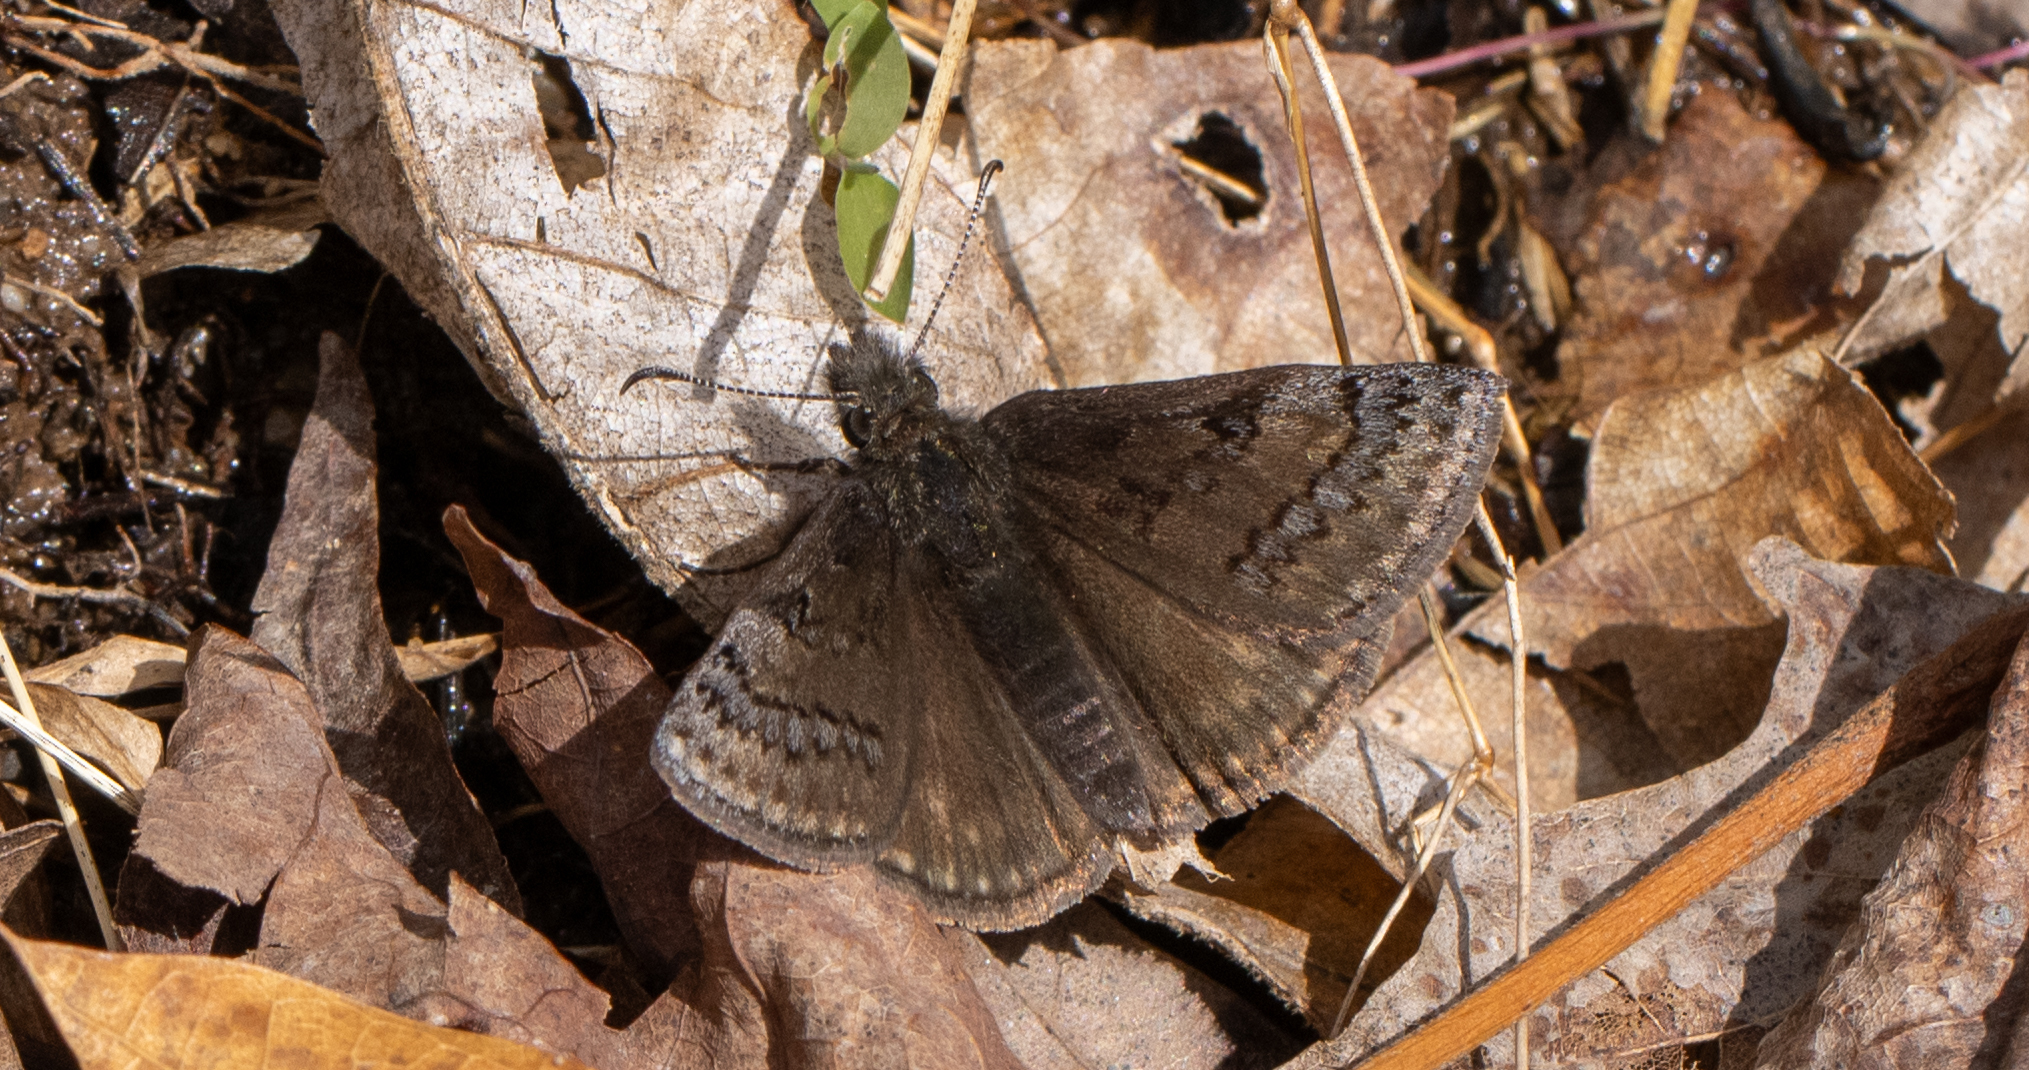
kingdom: Animalia
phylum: Arthropoda
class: Insecta
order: Lepidoptera
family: Hesperiidae
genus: Erynnis
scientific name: Erynnis brizo
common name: Sleepy duskywing
